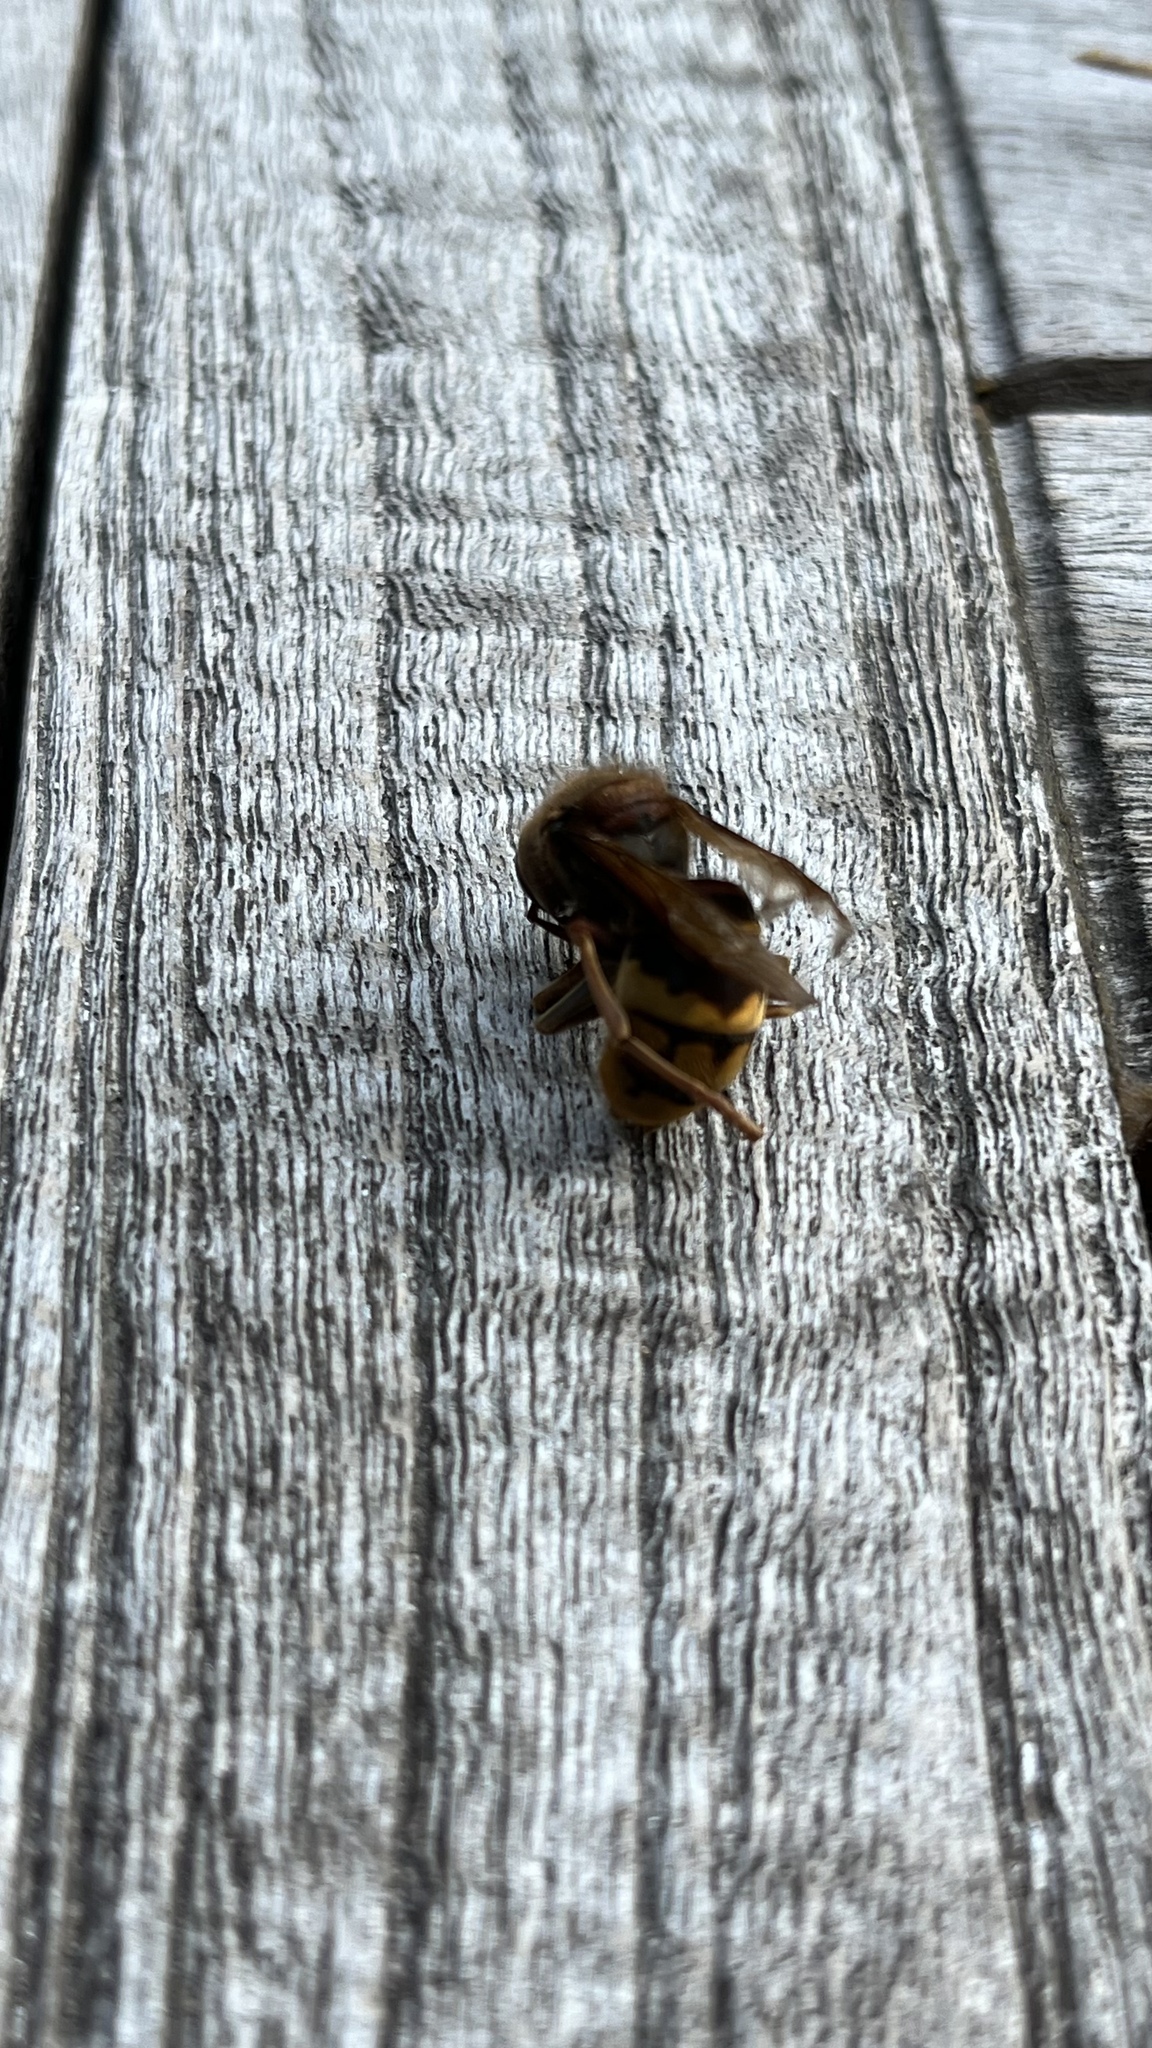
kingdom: Animalia
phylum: Arthropoda
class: Insecta
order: Hymenoptera
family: Vespidae
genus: Vespa
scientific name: Vespa crabro
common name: Hornet
